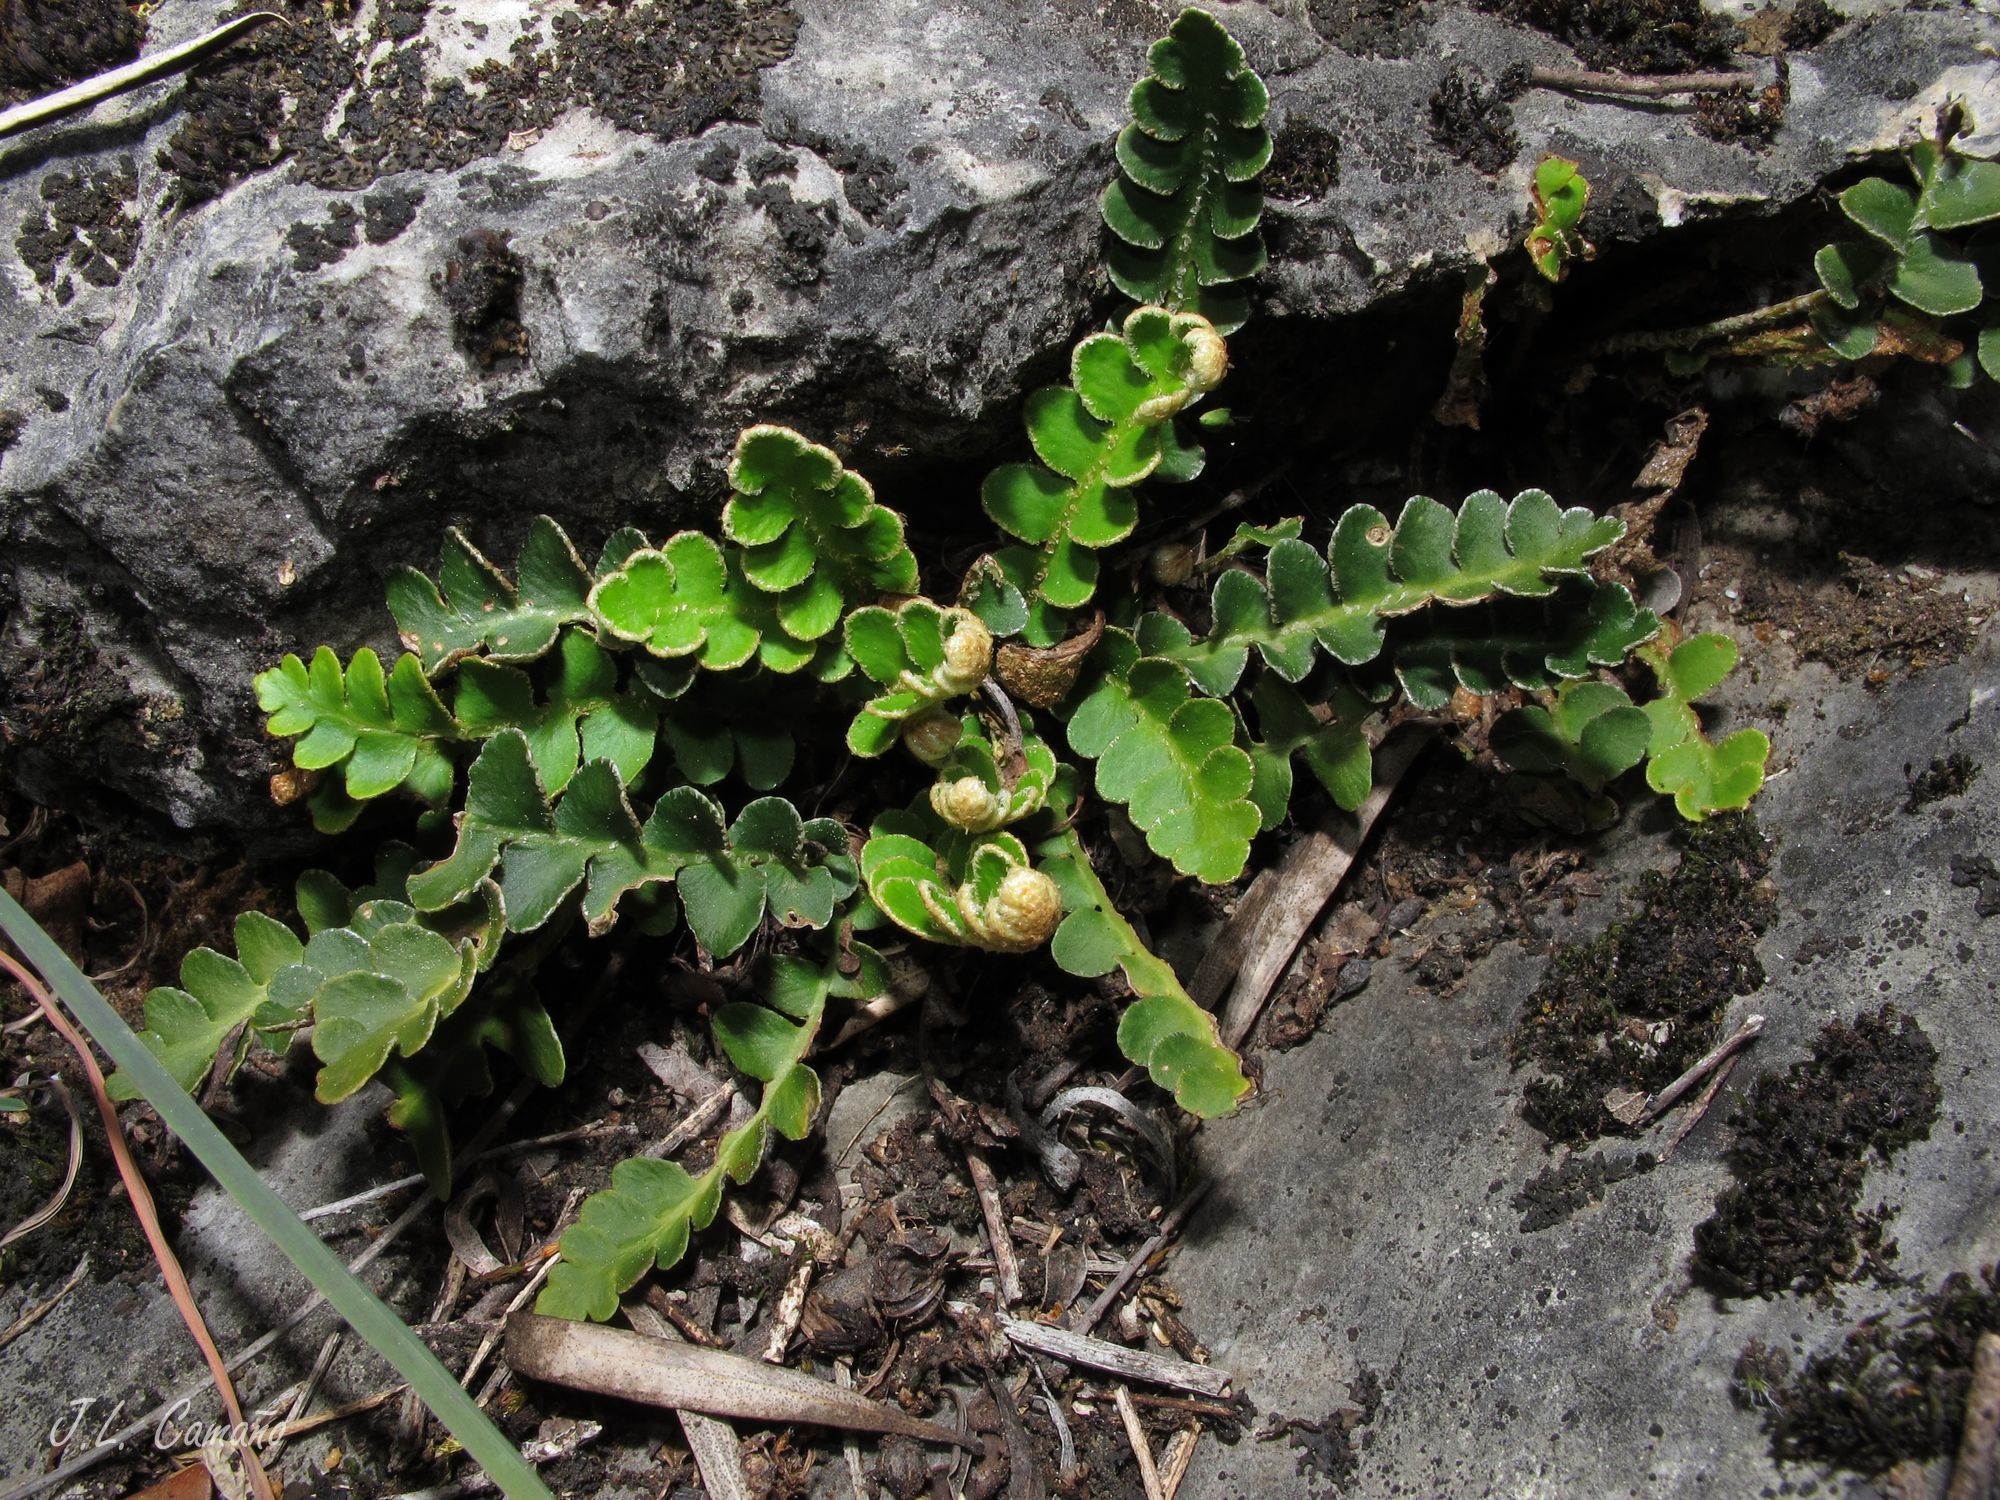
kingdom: Plantae
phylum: Tracheophyta
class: Polypodiopsida
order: Polypodiales
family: Aspleniaceae
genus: Asplenium
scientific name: Asplenium ceterach
